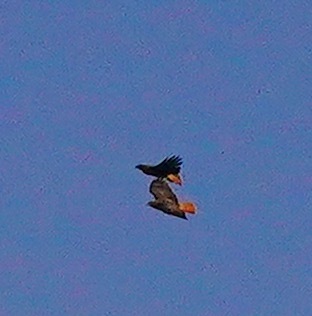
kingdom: Animalia
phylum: Chordata
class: Aves
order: Accipitriformes
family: Accipitridae
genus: Buteo
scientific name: Buteo jamaicensis
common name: Red-tailed hawk
